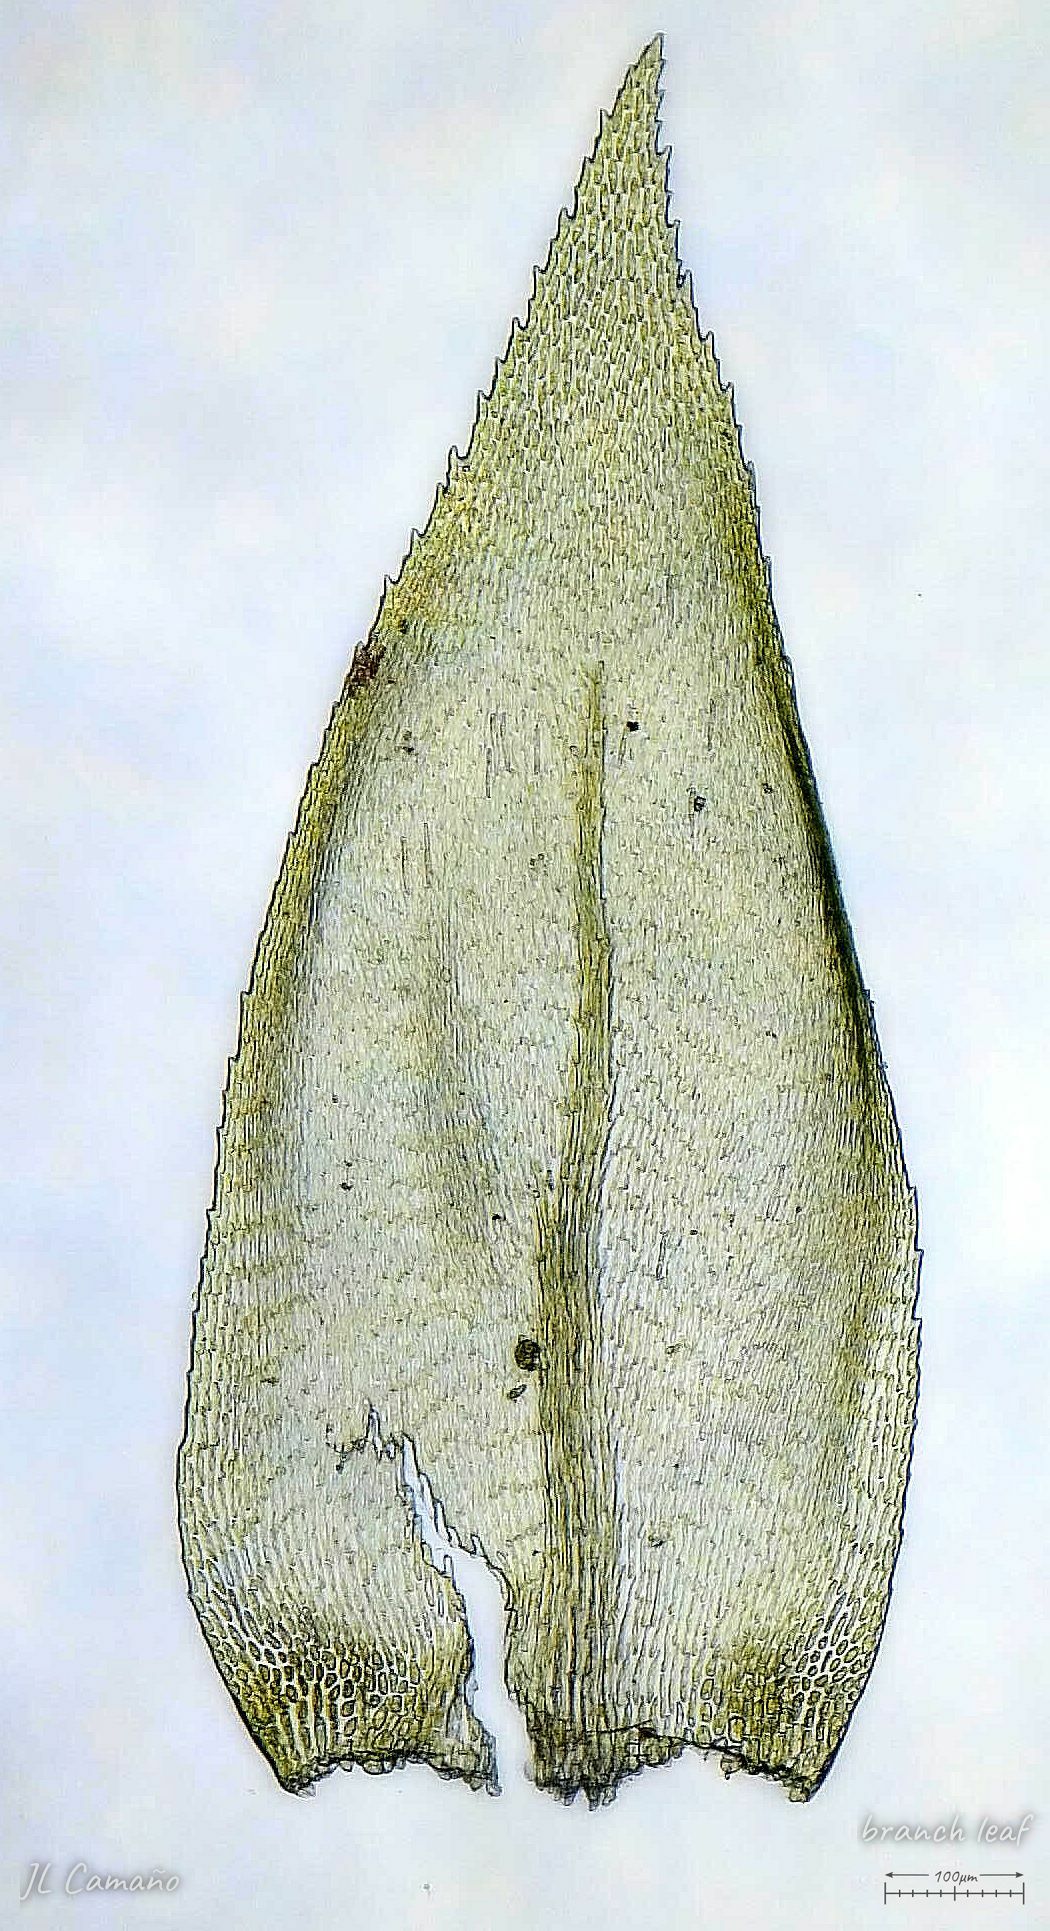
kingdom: Plantae
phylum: Bryophyta
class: Bryopsida
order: Hypnales
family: Neckeraceae
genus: Thamnobryum
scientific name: Thamnobryum alopecurum
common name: Fox-tail feather-moss
